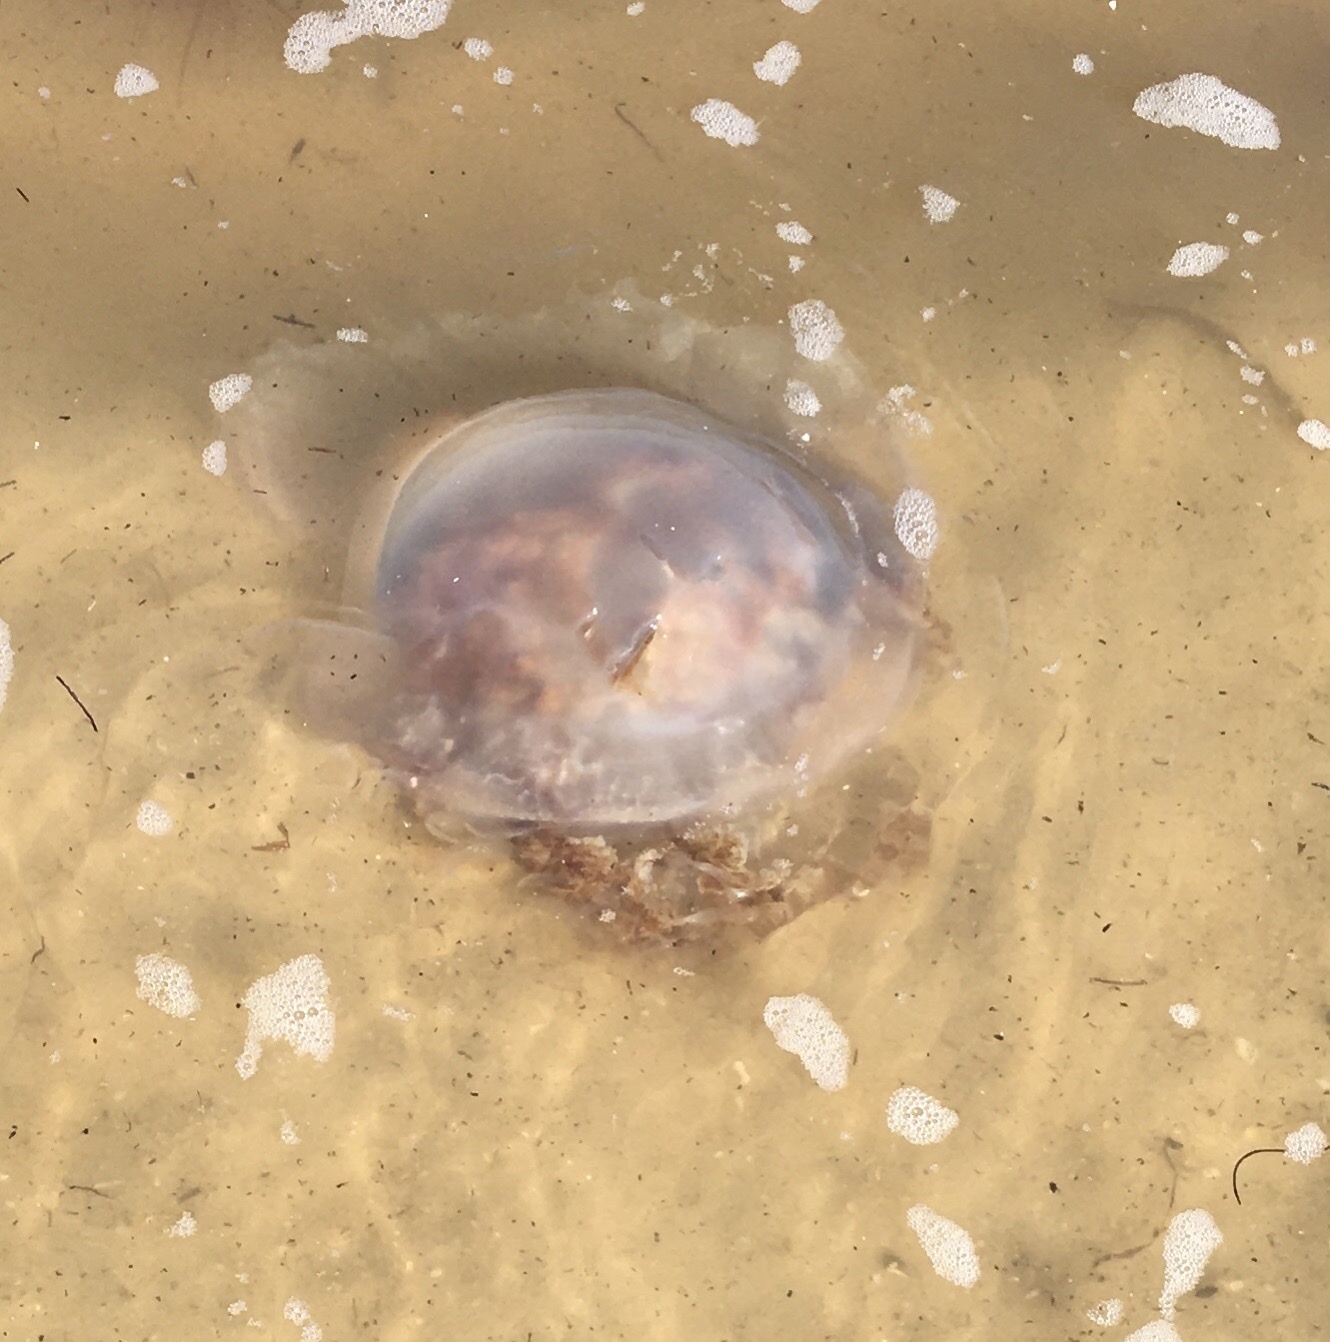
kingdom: Animalia
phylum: Cnidaria
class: Scyphozoa
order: Rhizostomeae
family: Rhizostomatidae
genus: Rhopilema
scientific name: Rhopilema verrilli
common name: Mushroom cap jellyfish
